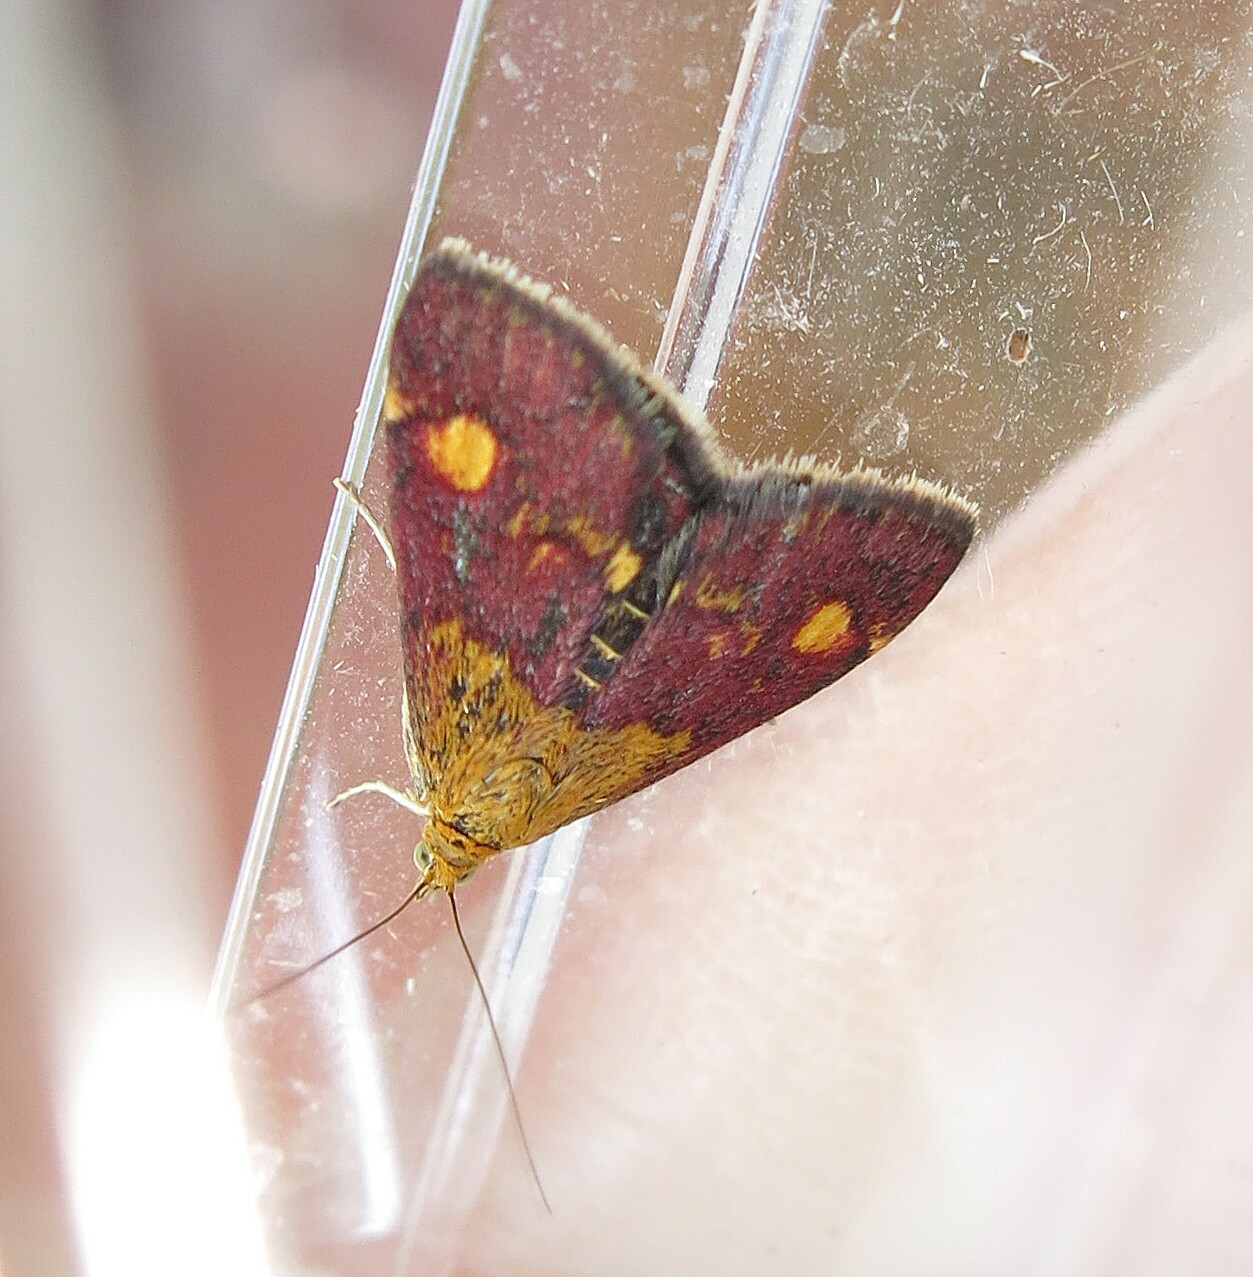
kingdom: Animalia
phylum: Arthropoda
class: Insecta
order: Lepidoptera
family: Crambidae
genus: Pyrausta
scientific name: Pyrausta aurata
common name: Small purple & gold
